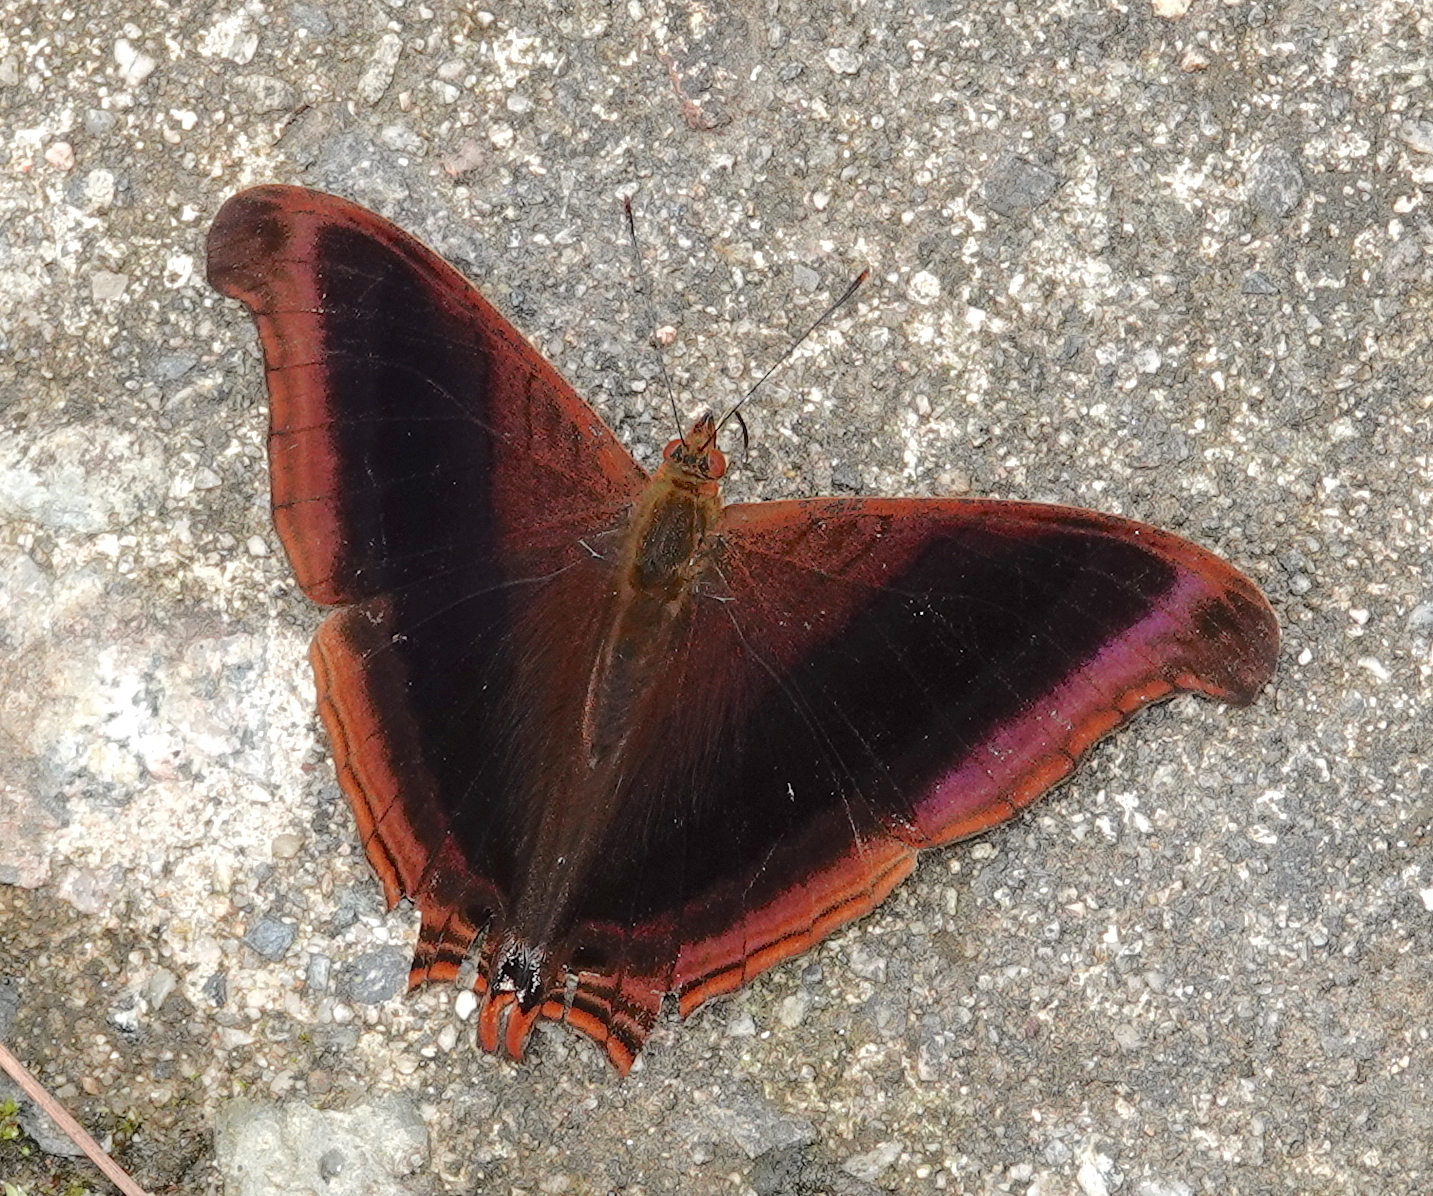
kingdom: Animalia
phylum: Arthropoda
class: Insecta
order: Lepidoptera
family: Nymphalidae
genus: Marpesia
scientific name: Marpesia zerynthia
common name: Waiter daggerwing
